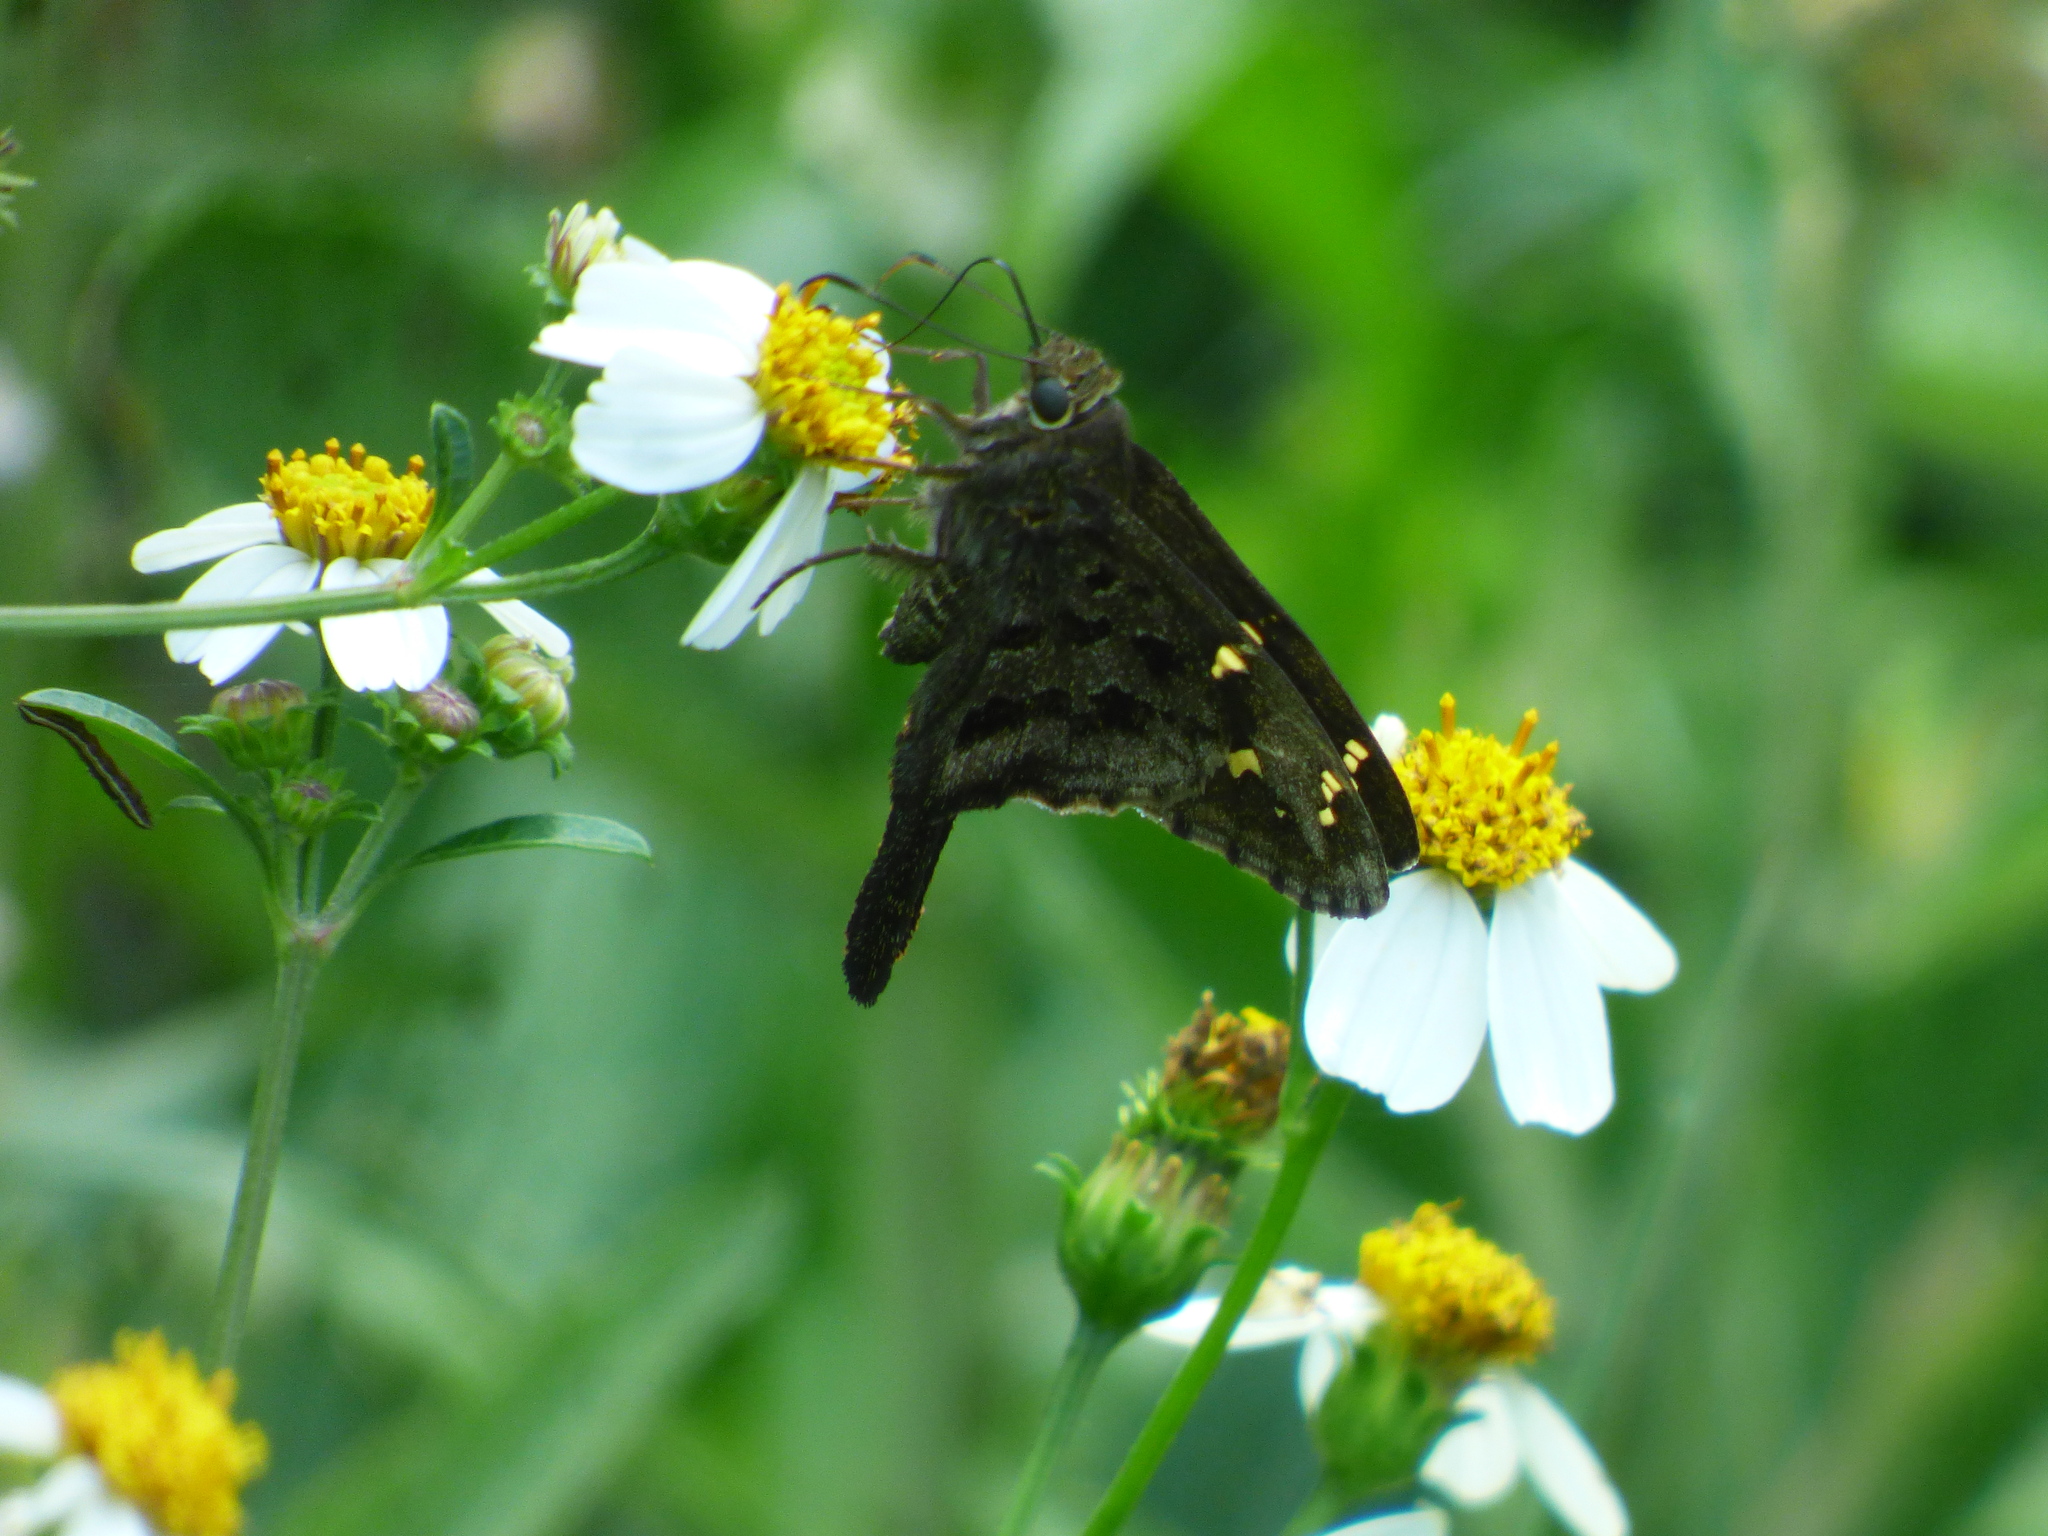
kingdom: Animalia
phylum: Arthropoda
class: Insecta
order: Lepidoptera
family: Hesperiidae
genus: Thorybes
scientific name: Thorybes
